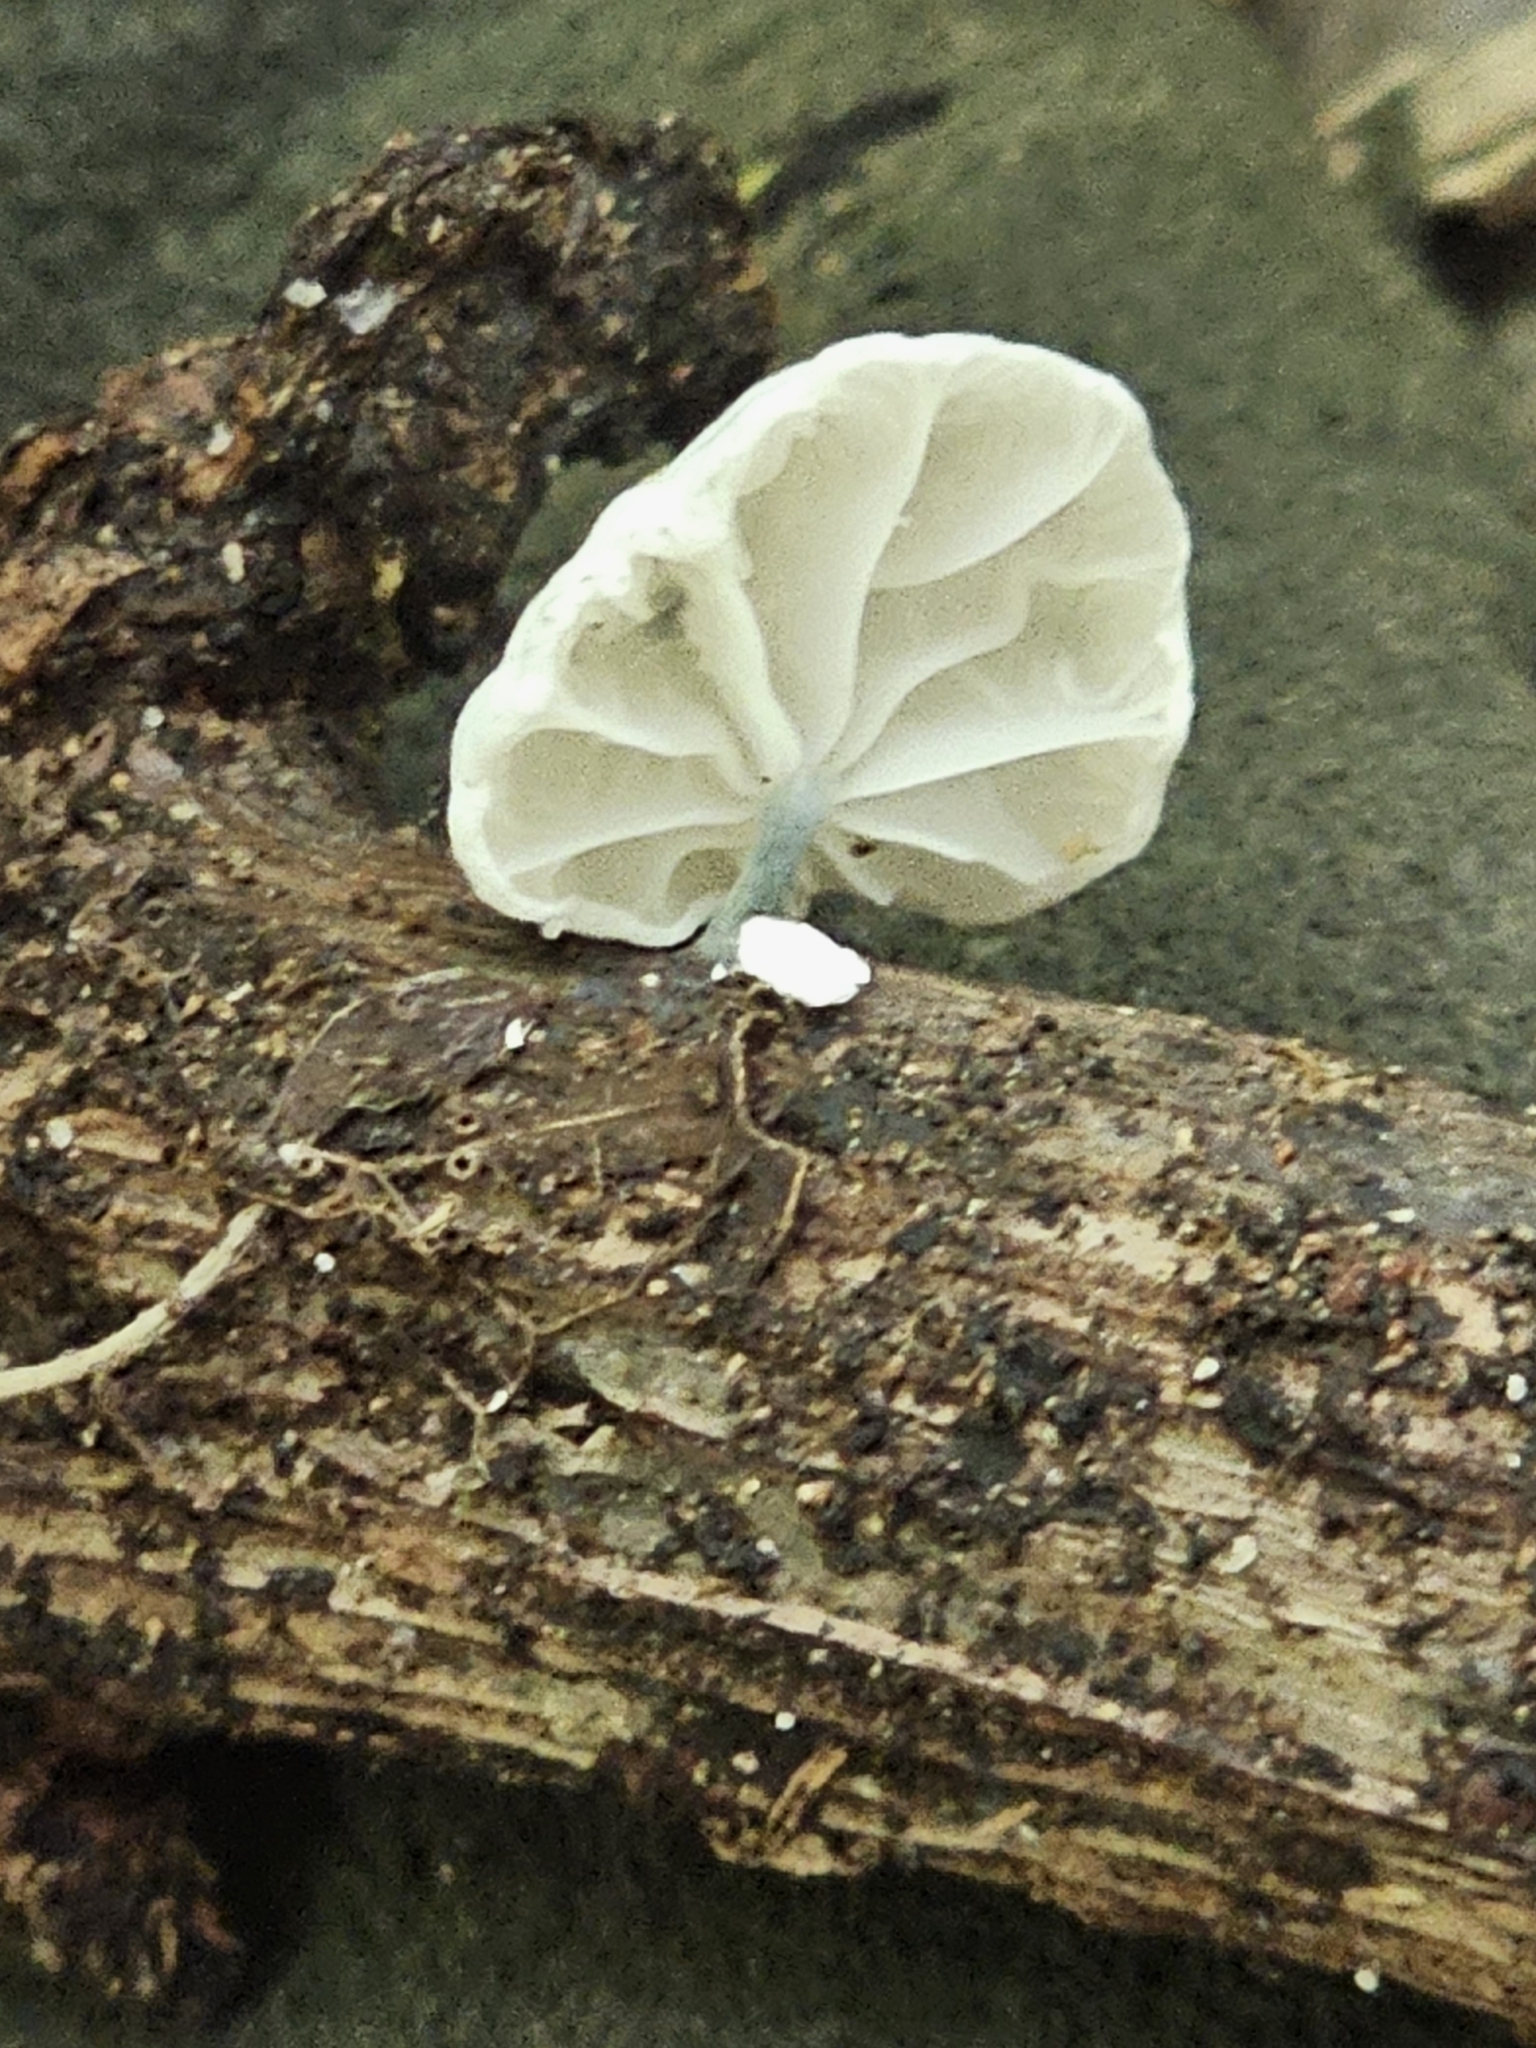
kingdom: Fungi
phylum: Basidiomycota
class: Agaricomycetes
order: Agaricales
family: Marasmiaceae
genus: Campanella
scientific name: Campanella tristis
